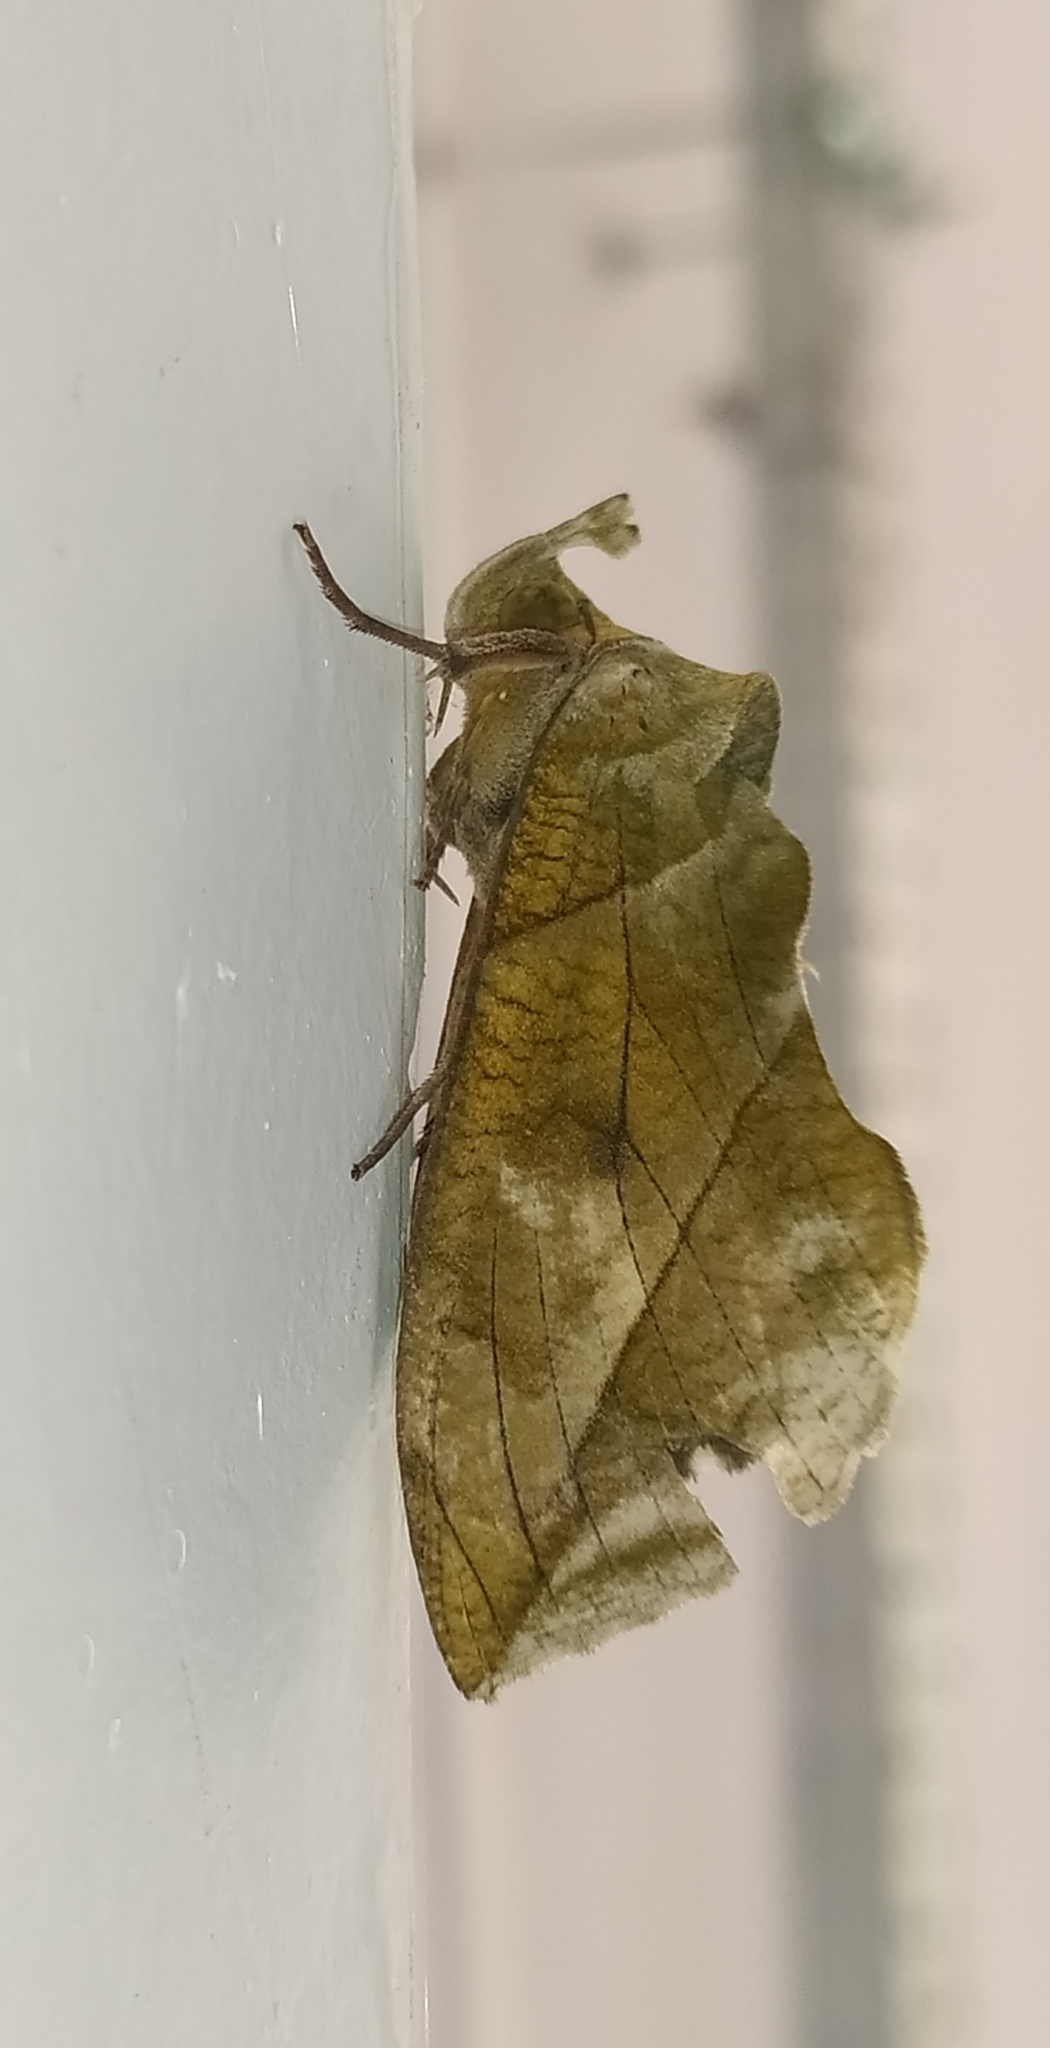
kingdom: Animalia
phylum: Arthropoda
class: Insecta
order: Lepidoptera
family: Erebidae
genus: Eudocima
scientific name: Eudocima hypermnestra
